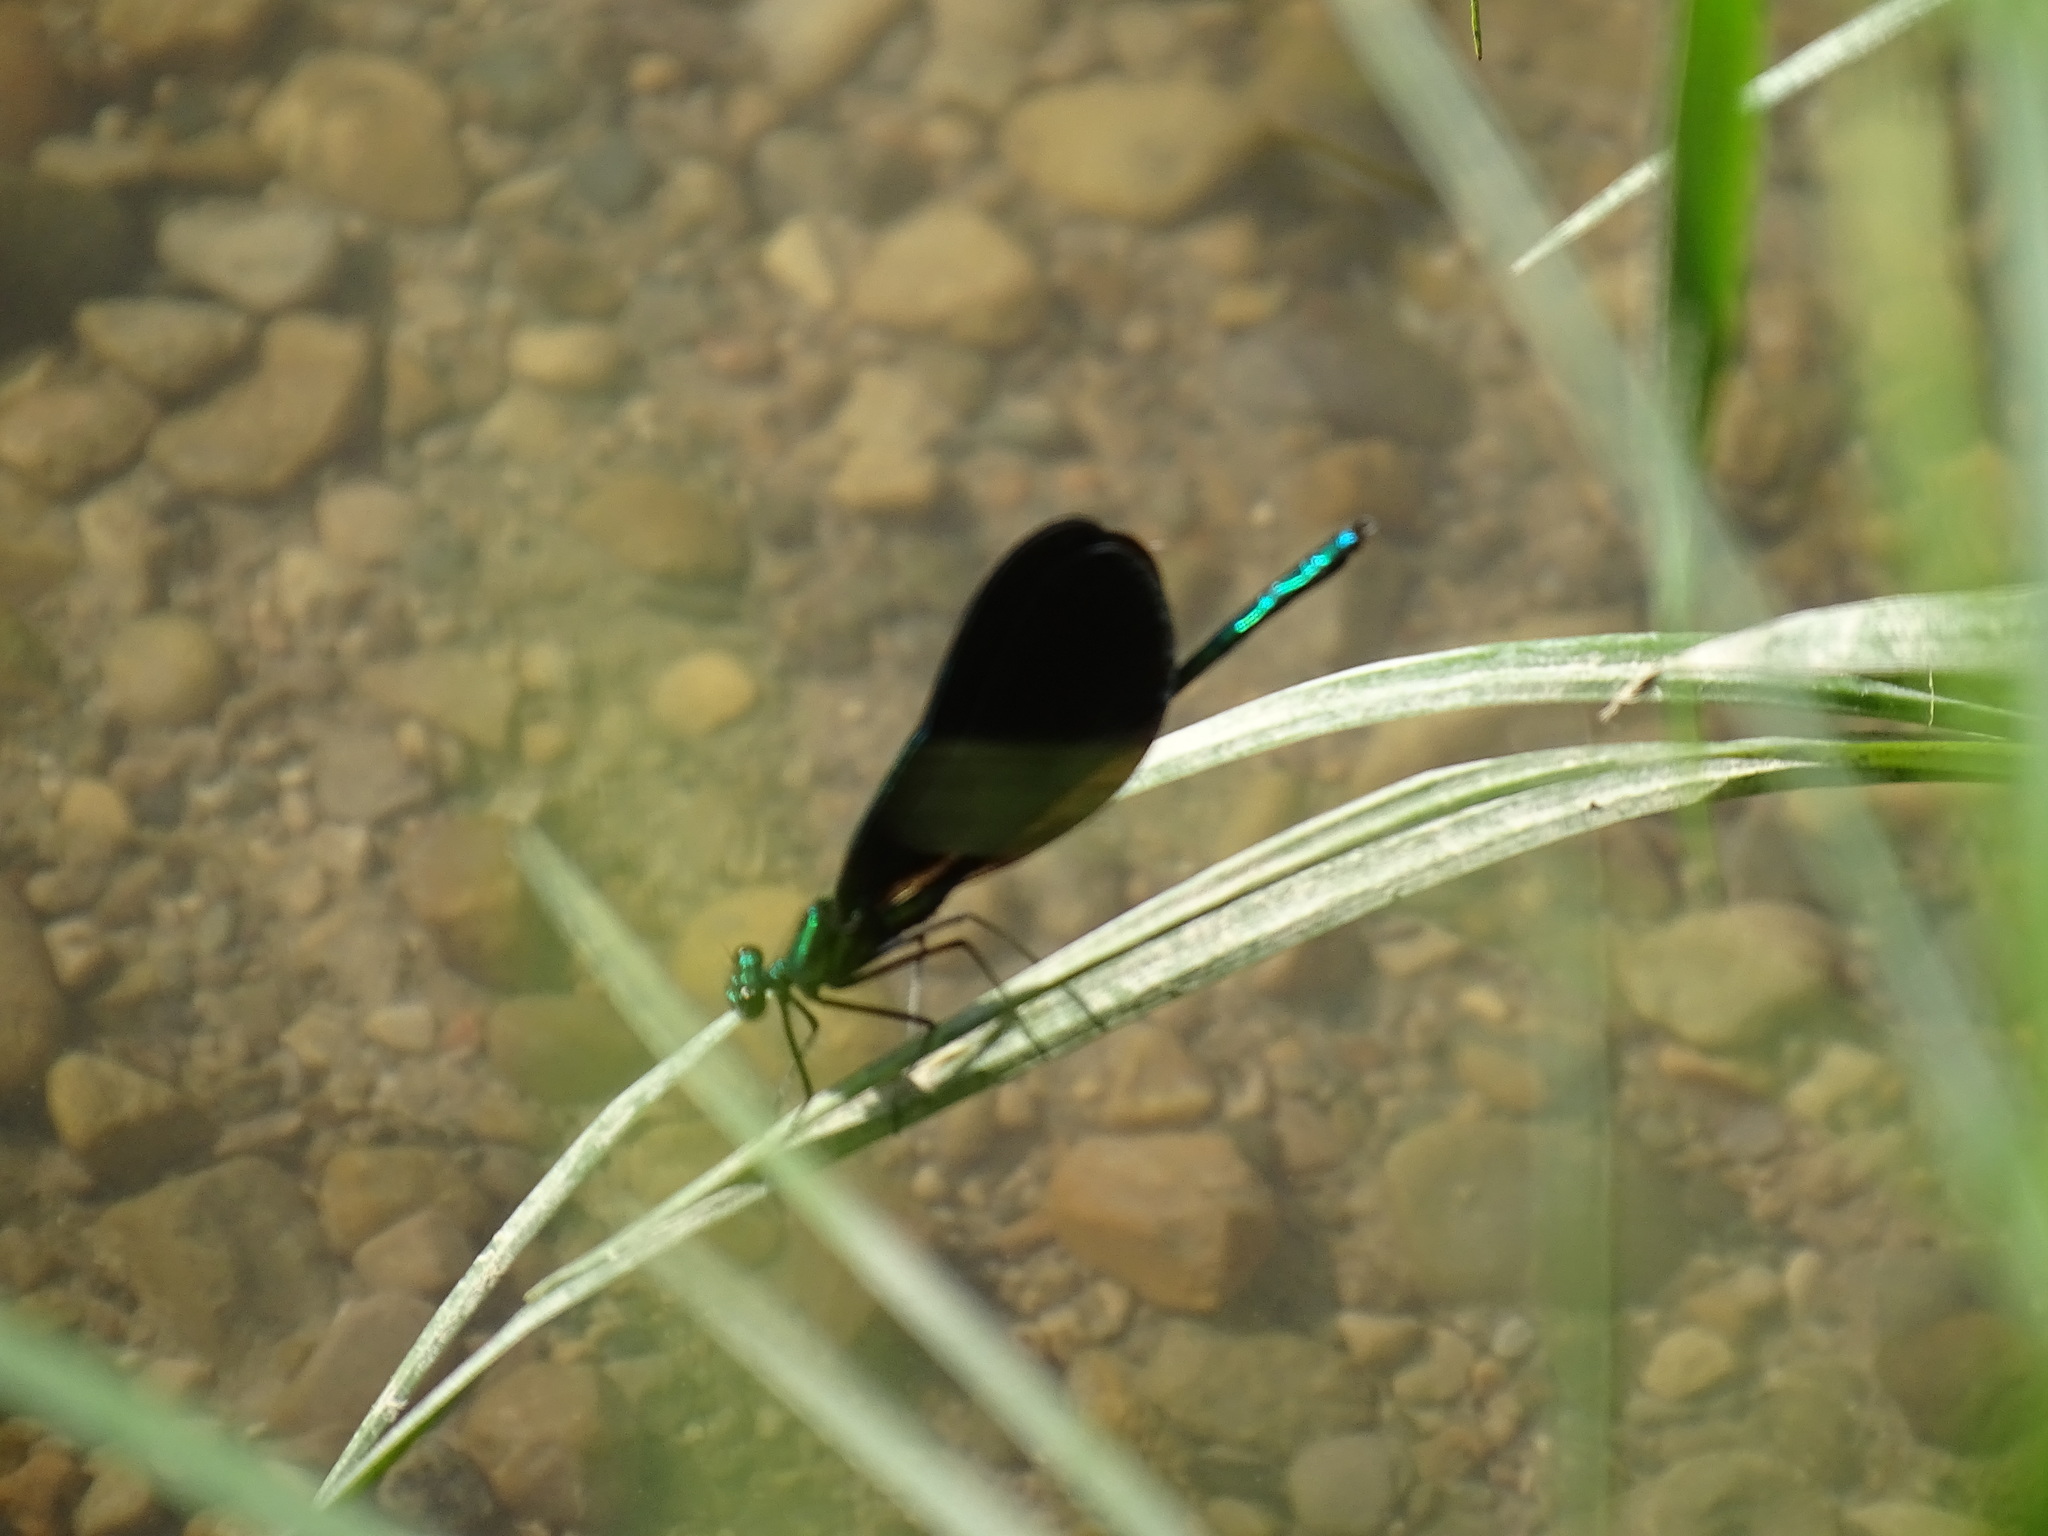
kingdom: Animalia
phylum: Arthropoda
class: Insecta
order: Odonata
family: Calopterygidae
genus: Calopteryx
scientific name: Calopteryx maculata
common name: Ebony jewelwing
